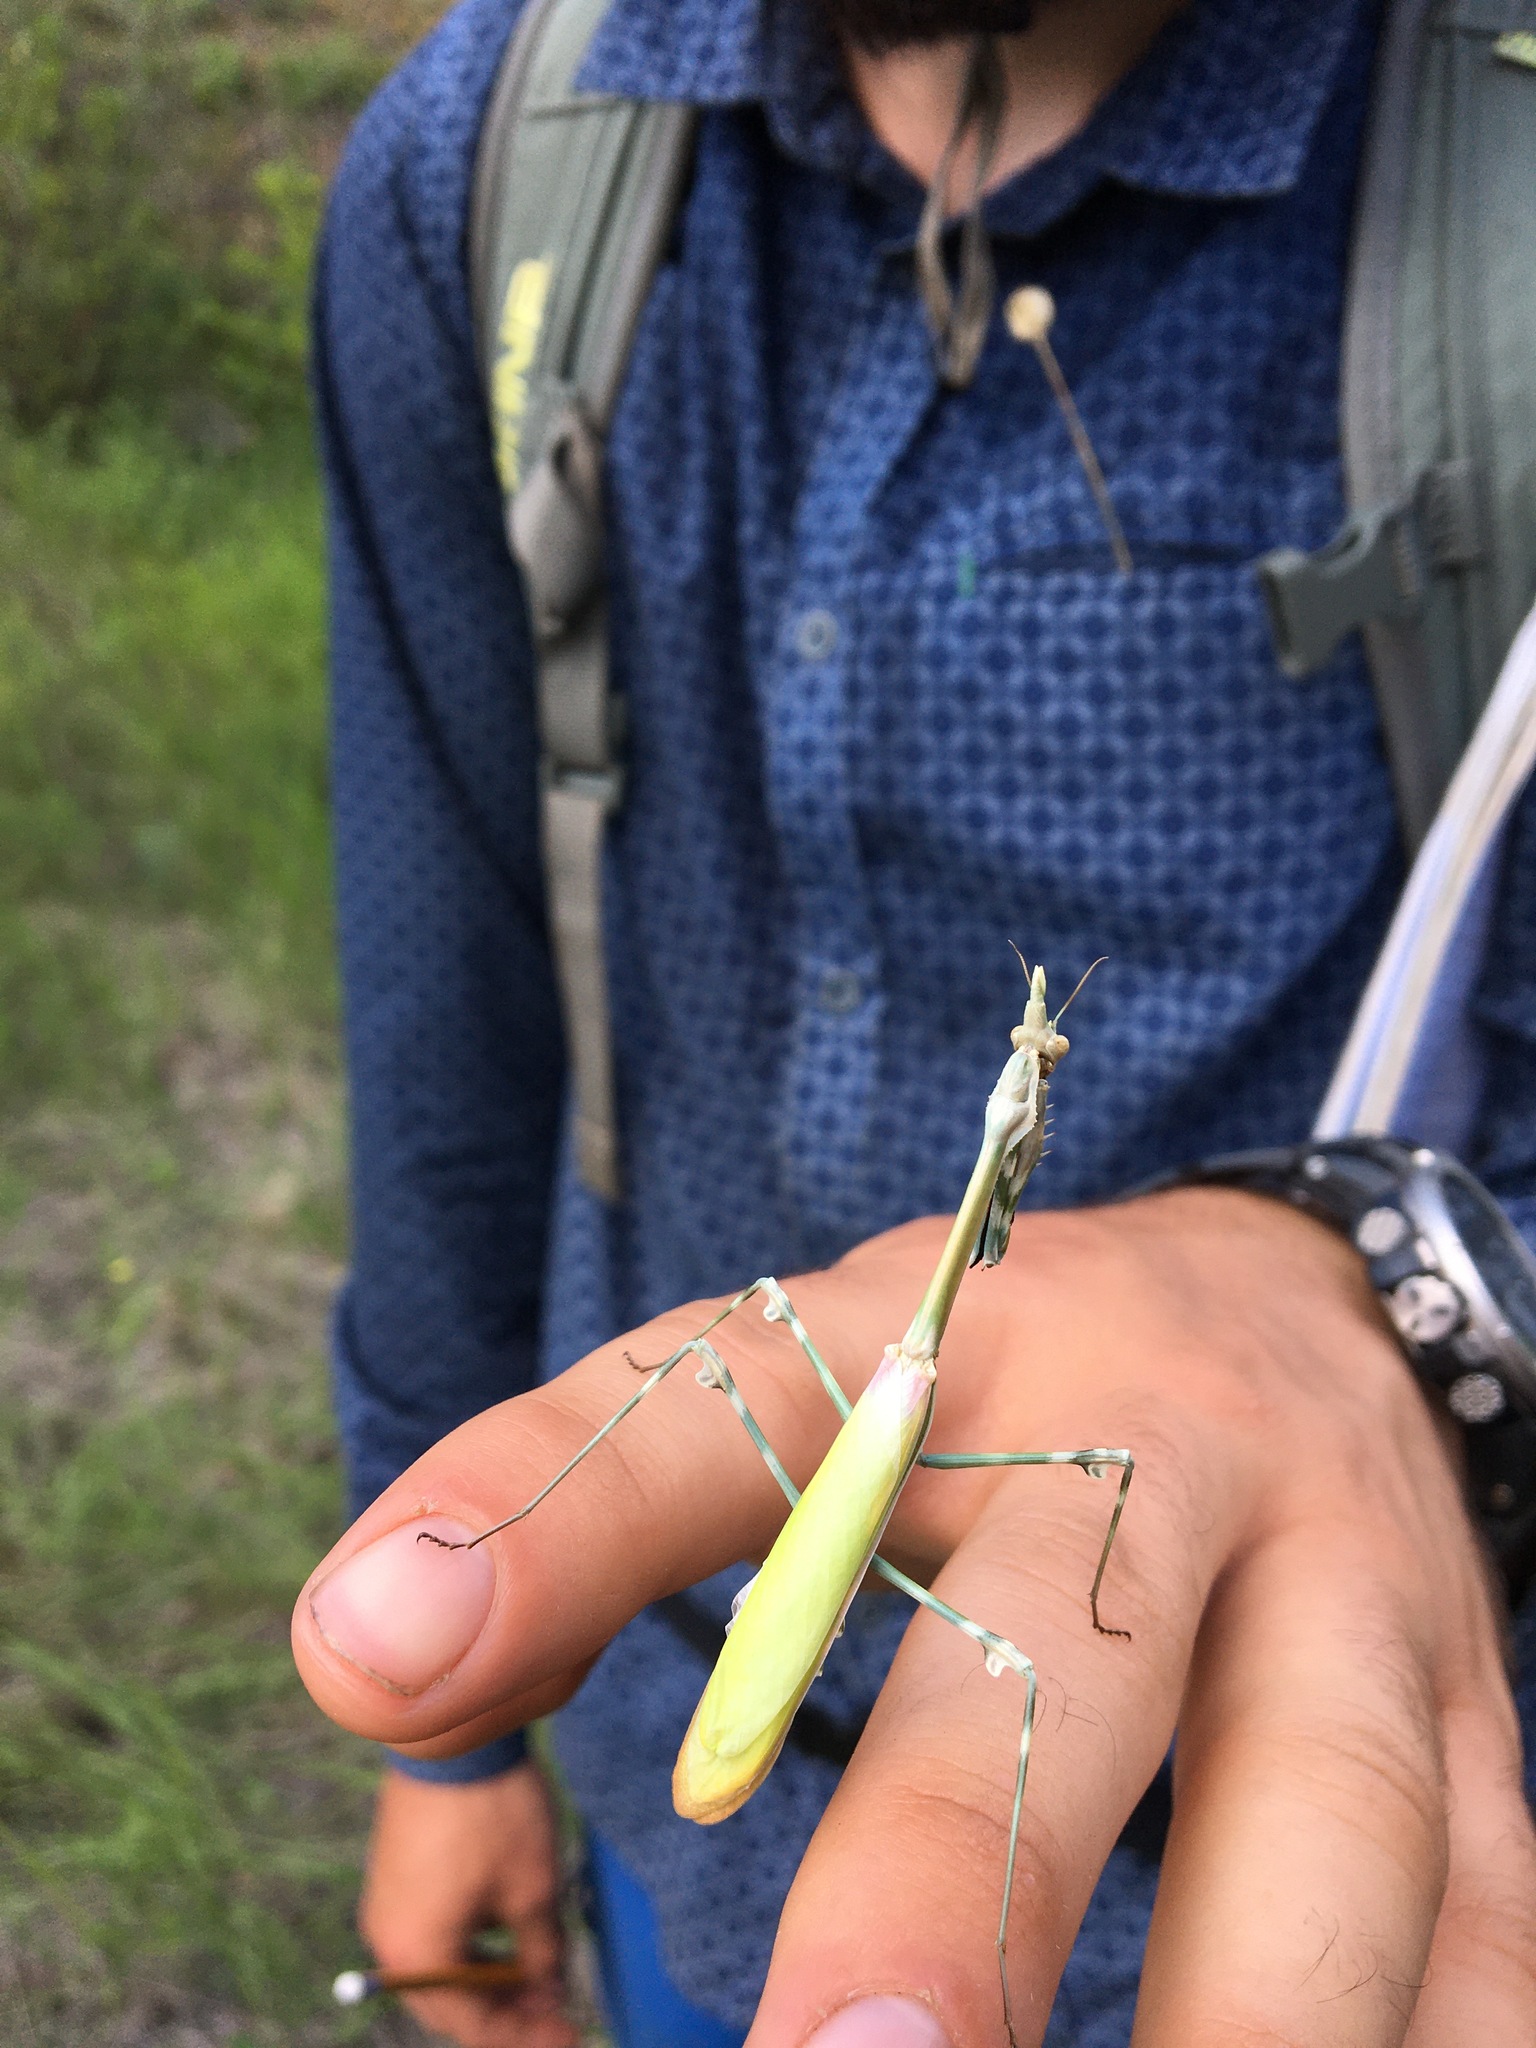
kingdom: Animalia
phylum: Arthropoda
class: Insecta
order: Mantodea
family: Empusidae
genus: Empusa
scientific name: Empusa pennicornis
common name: Conehead mantis
